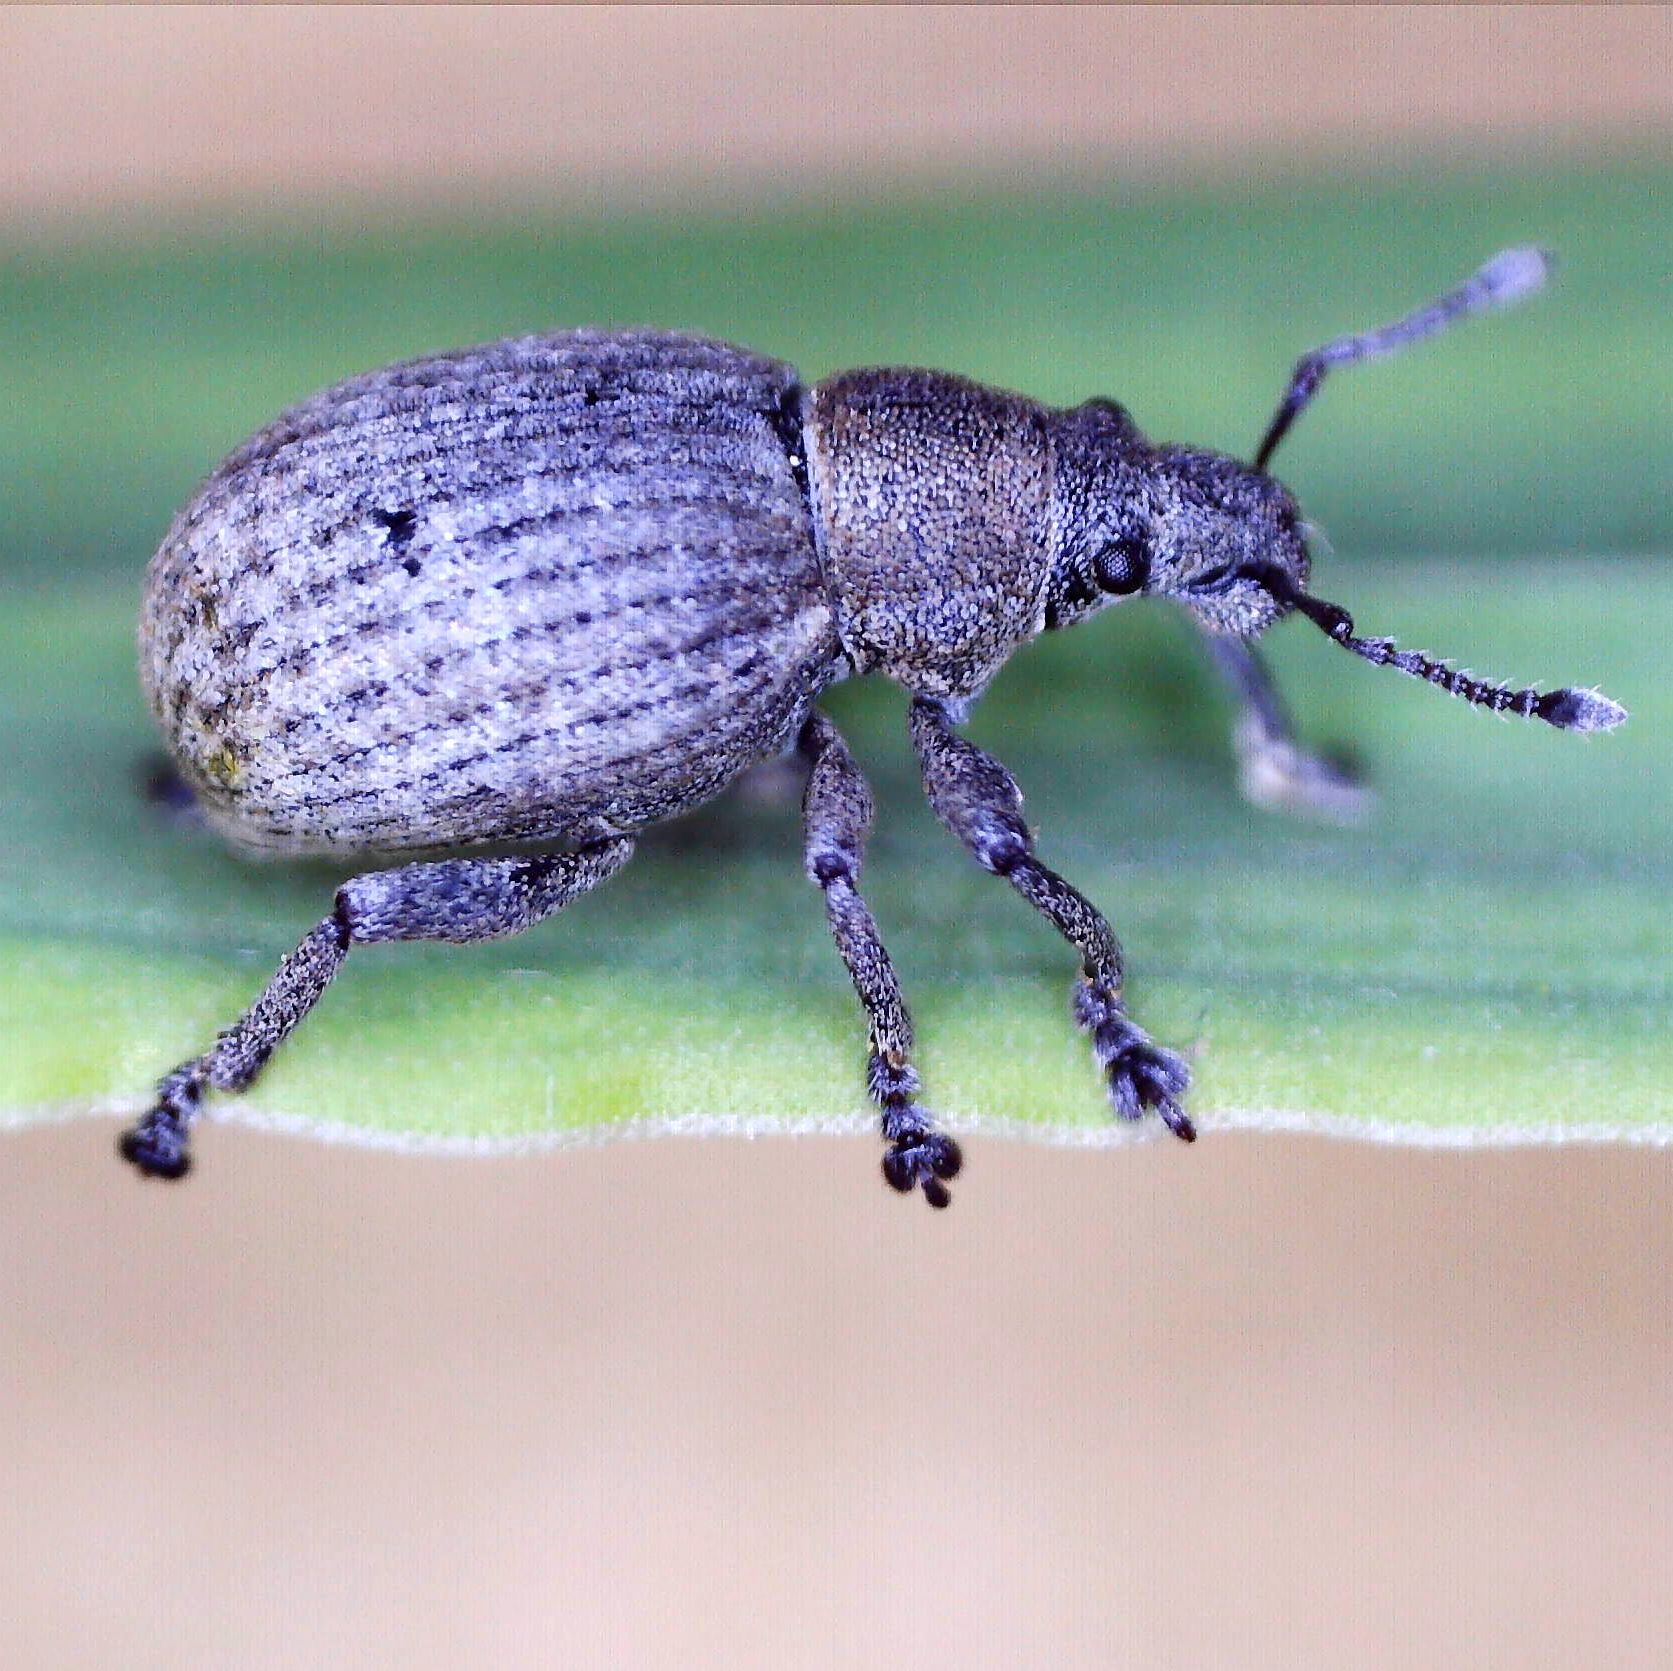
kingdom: Animalia
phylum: Arthropoda
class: Insecta
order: Coleoptera
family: Curculionidae
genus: Attactagenus
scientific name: Attactagenus plumbeus
